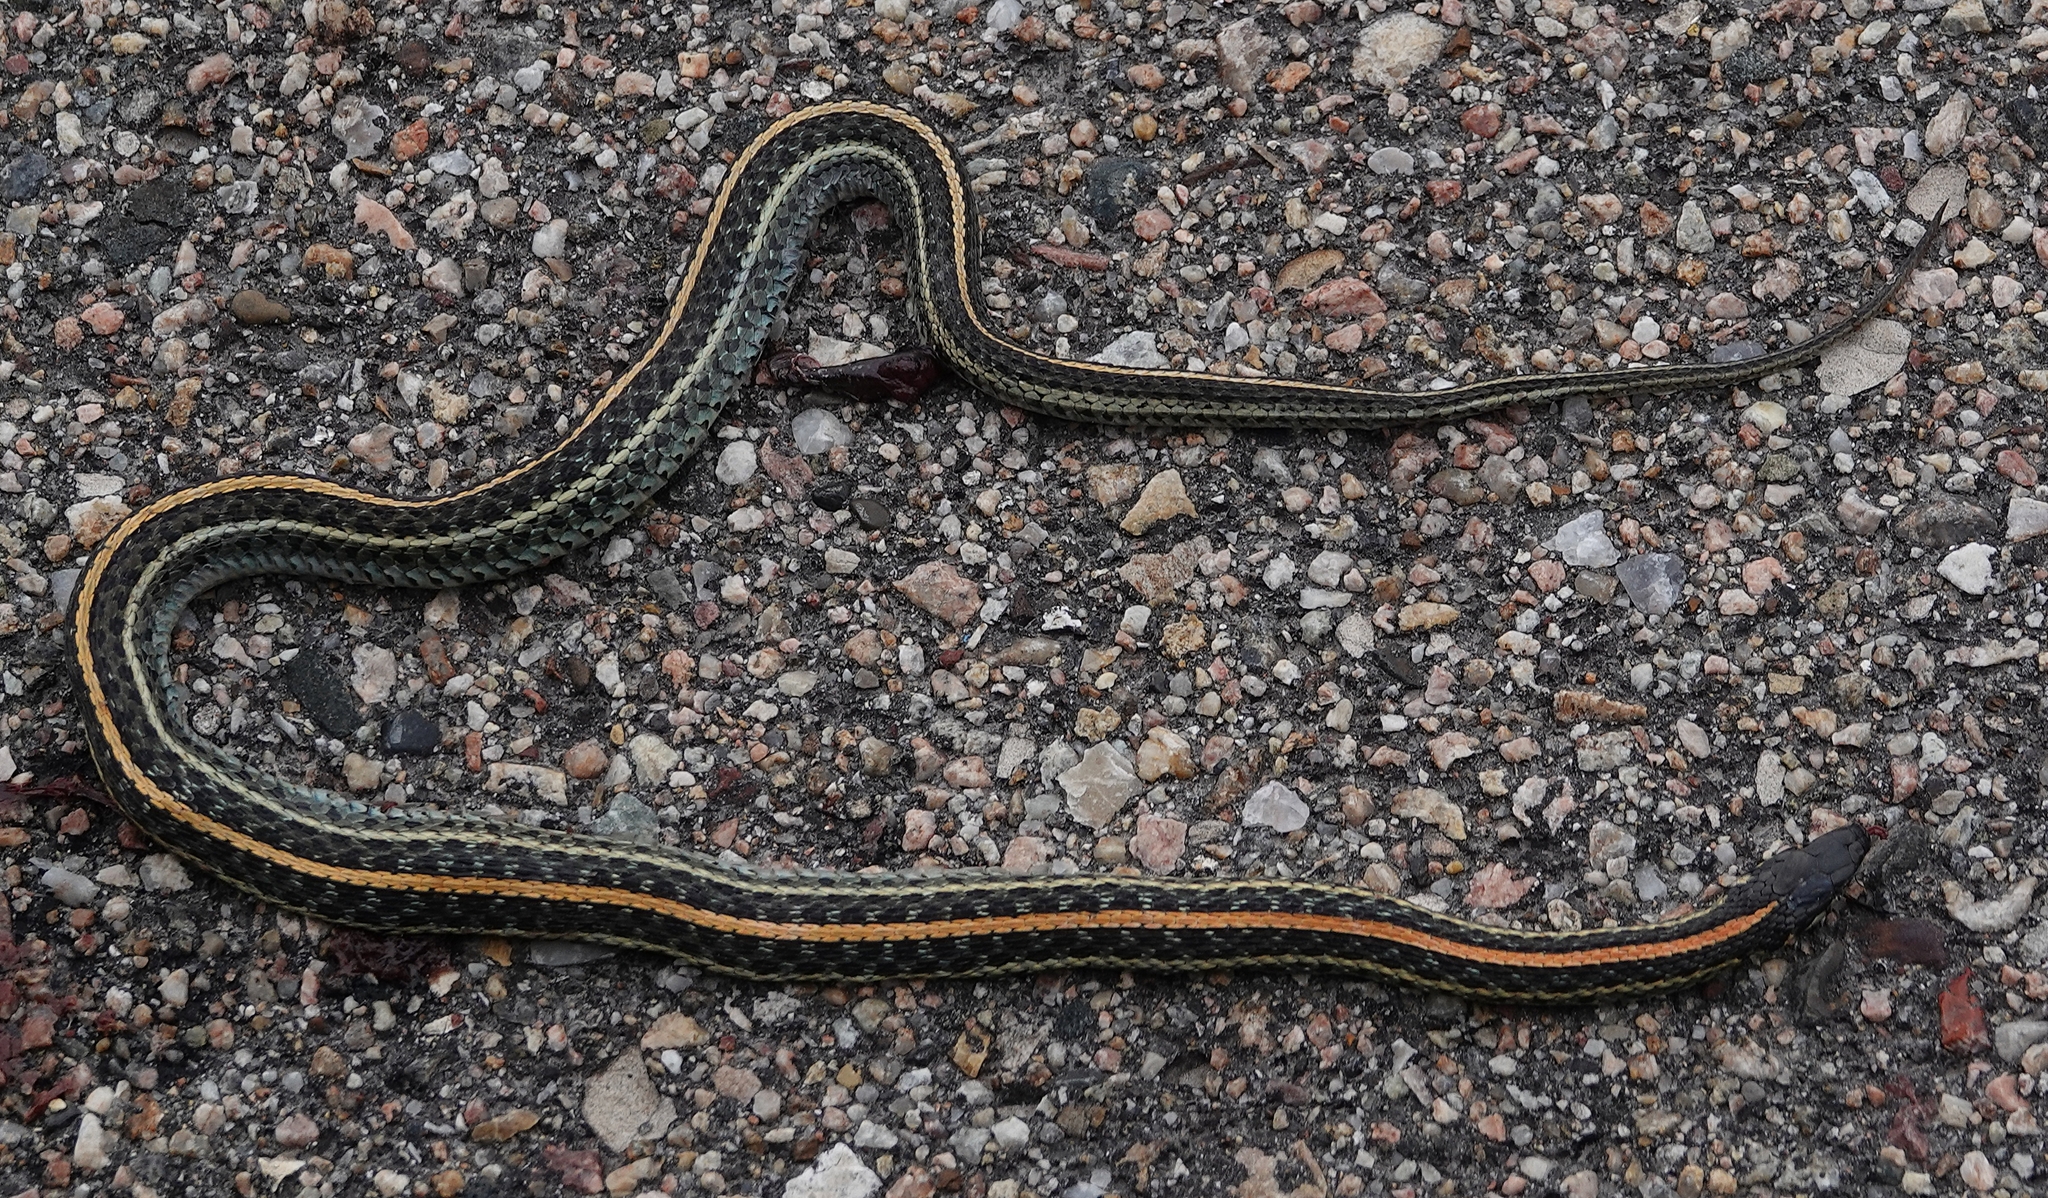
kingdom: Animalia
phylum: Chordata
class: Squamata
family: Colubridae
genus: Thamnophis
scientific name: Thamnophis radix
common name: Plains garter snake
